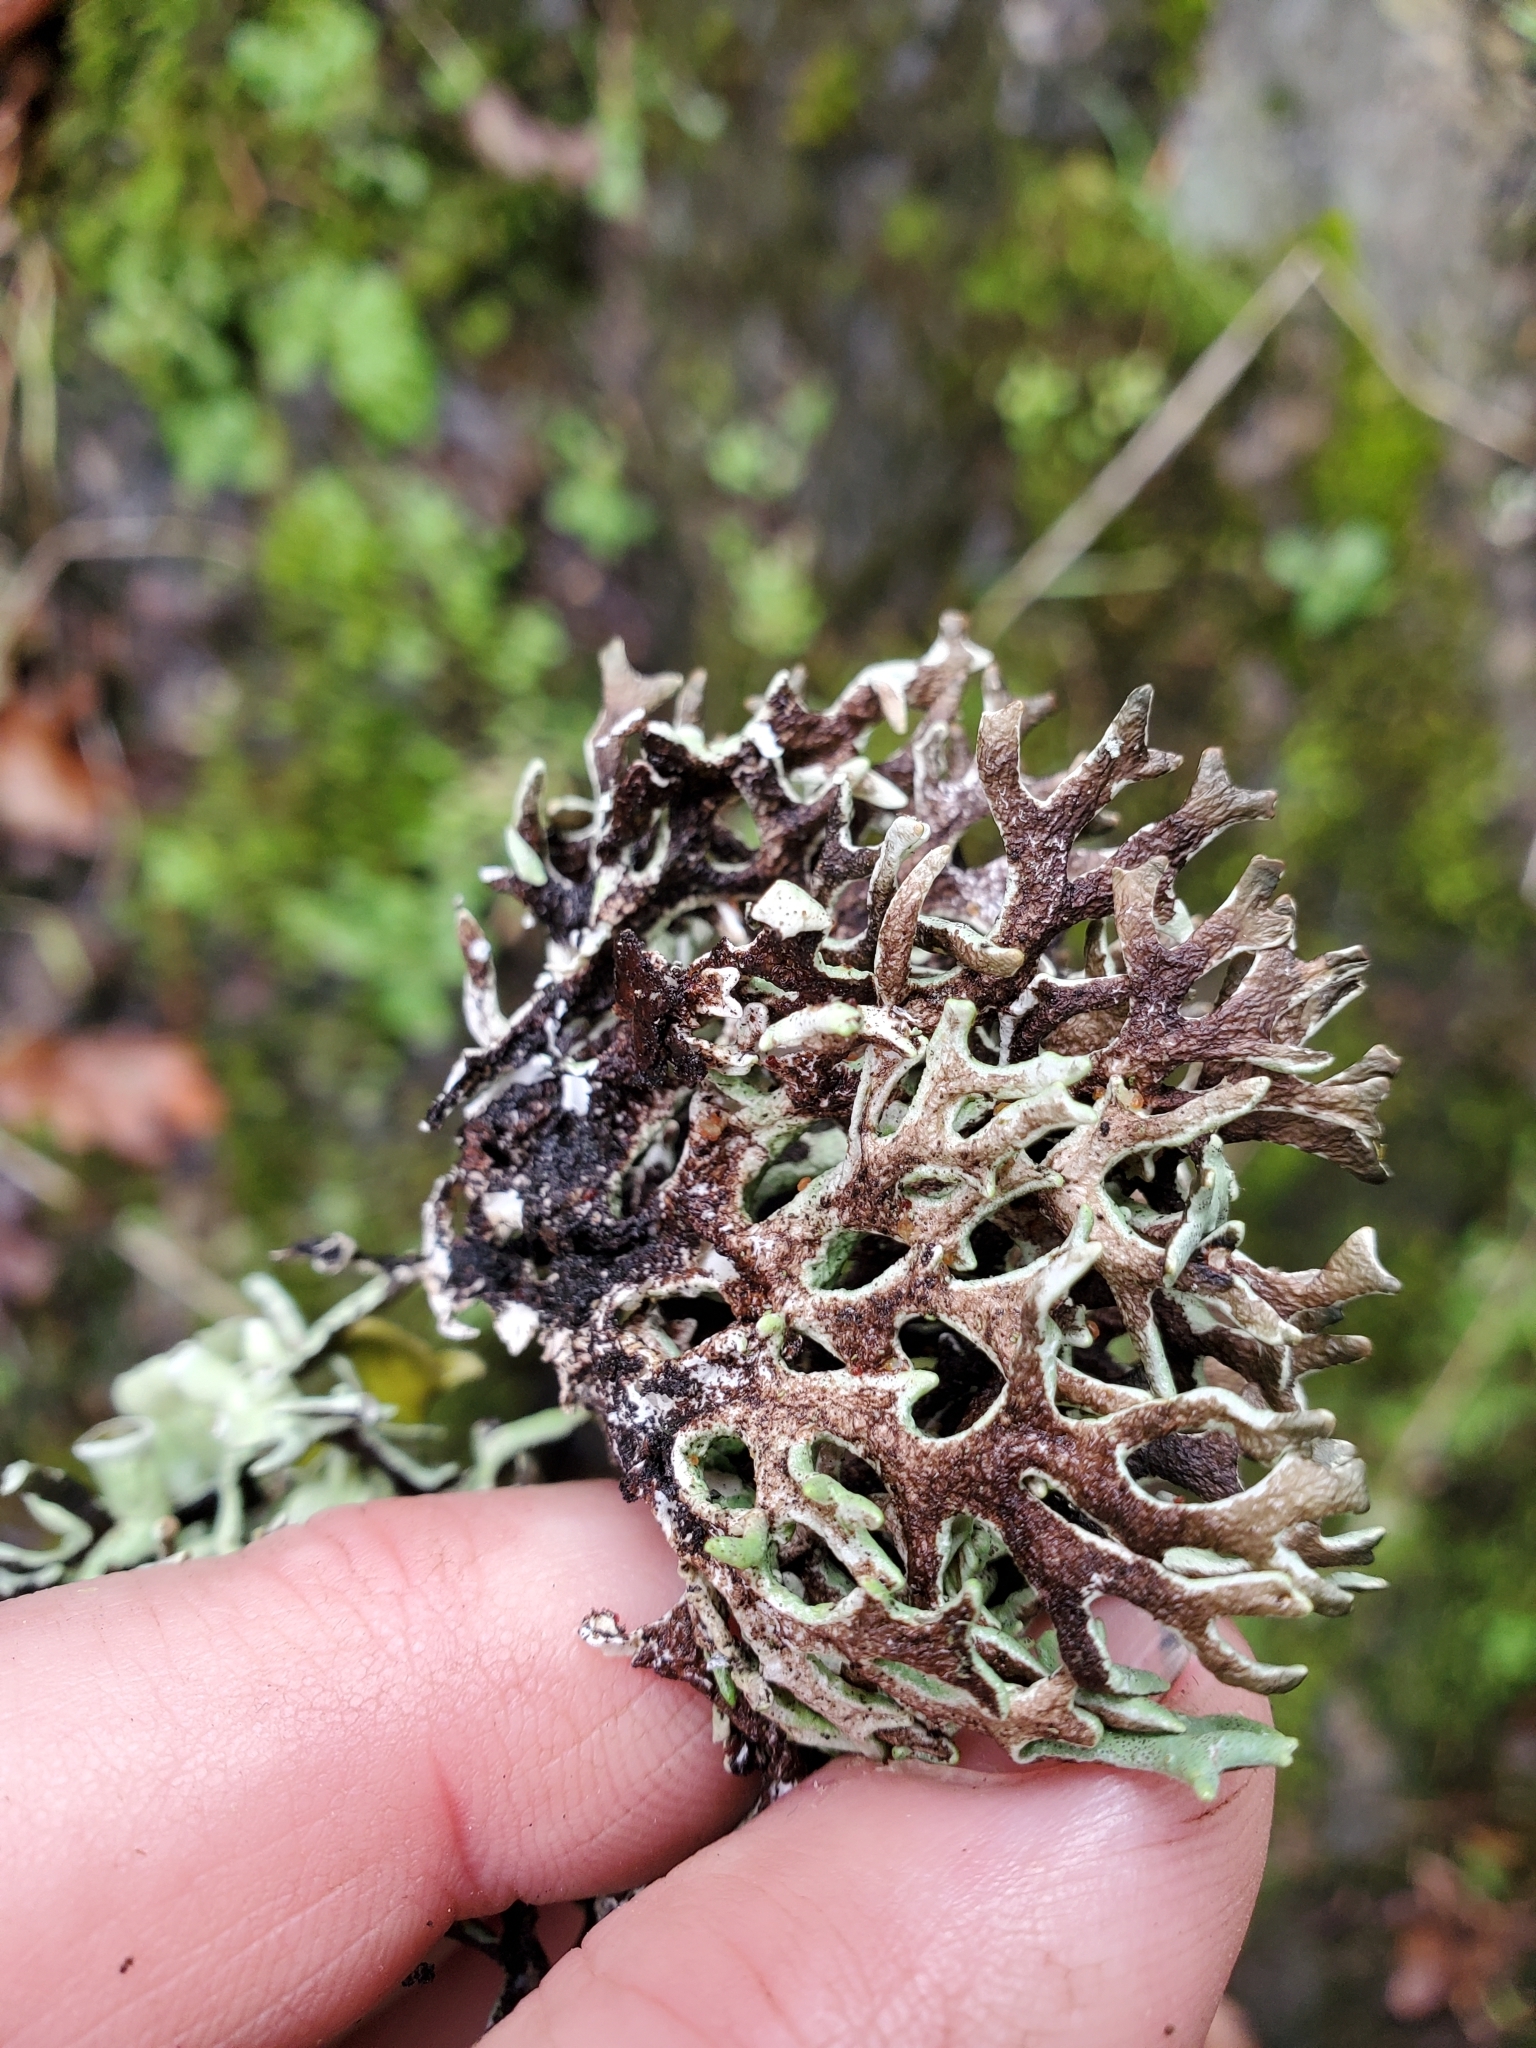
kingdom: Fungi
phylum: Ascomycota
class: Lecanoromycetes
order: Lecanorales
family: Parmeliaceae
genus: Hypogymnia
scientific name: Hypogymnia imshaugii
